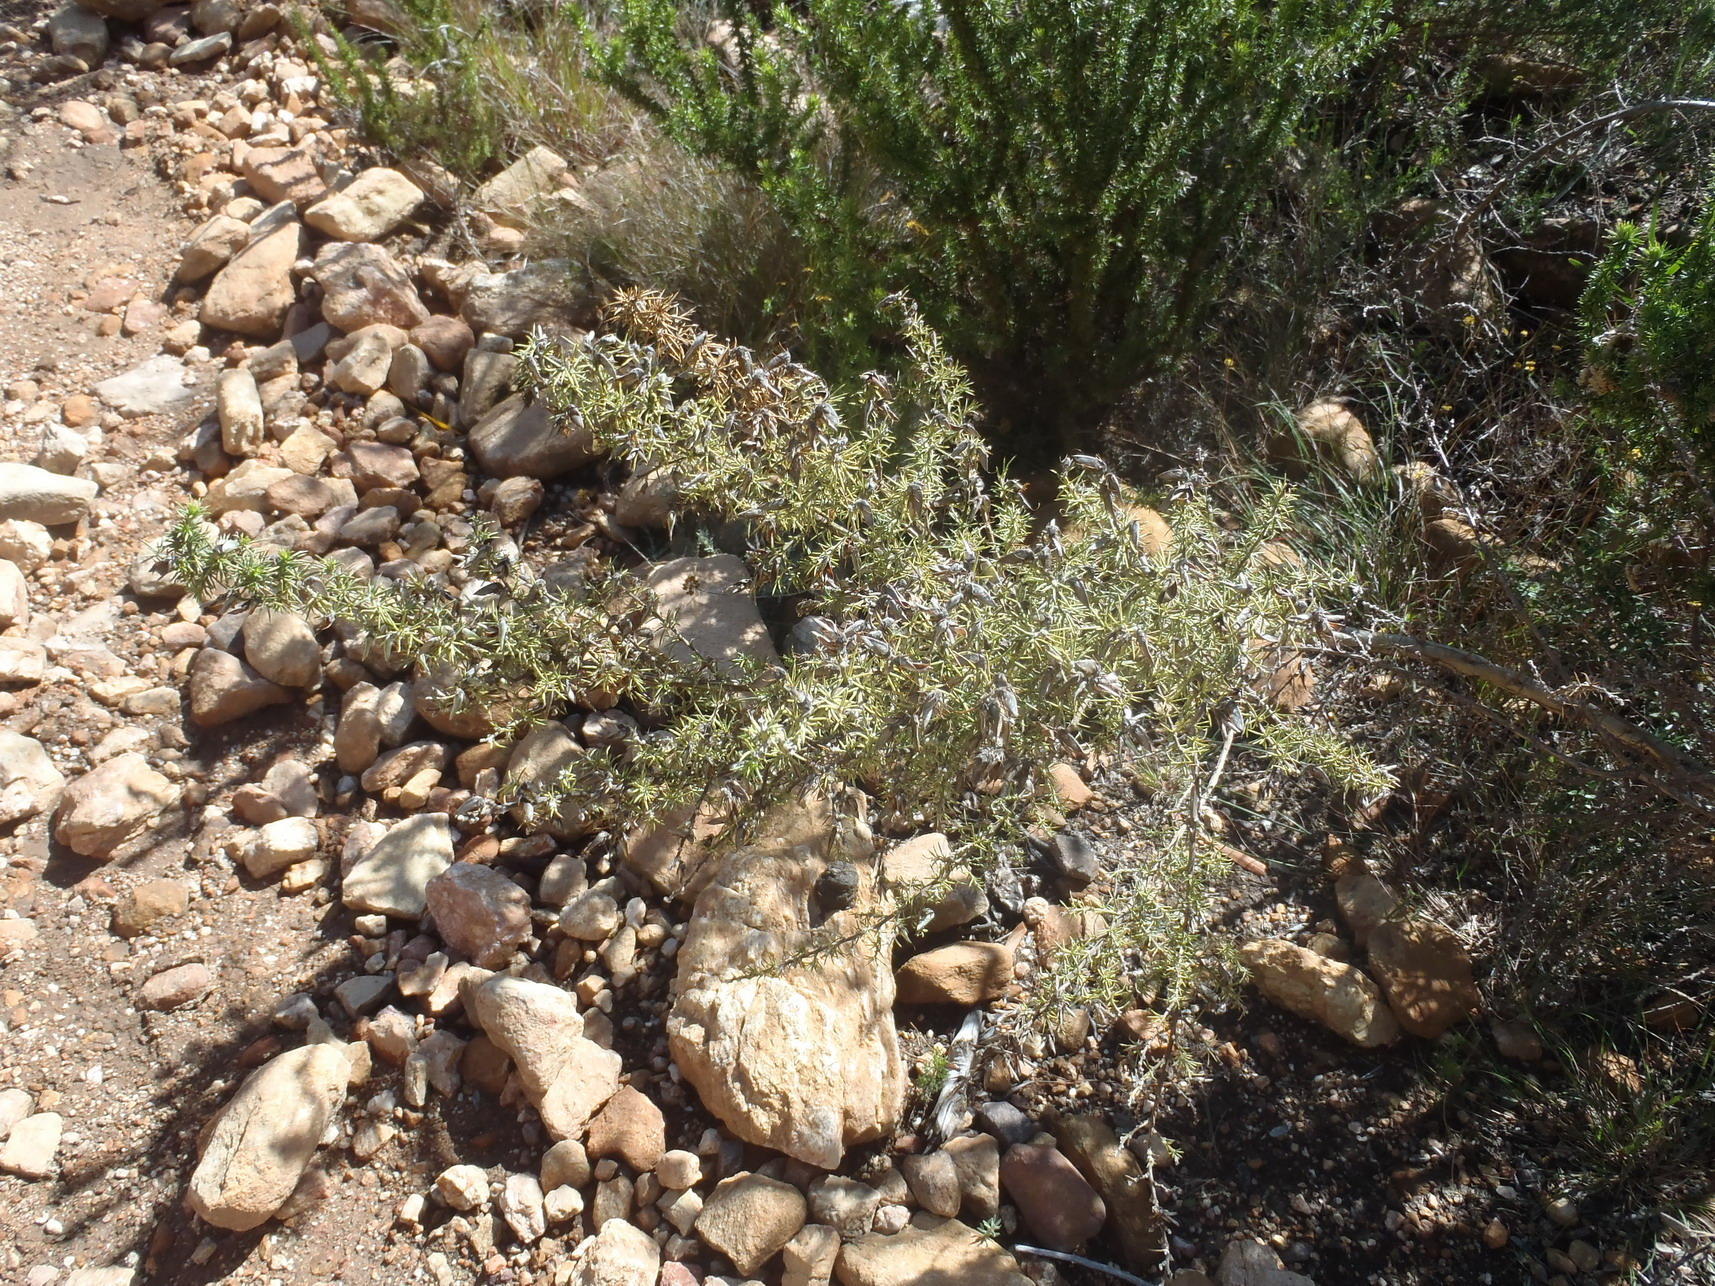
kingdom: Plantae
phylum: Tracheophyta
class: Magnoliopsida
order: Fabales
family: Fabaceae
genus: Aspalathus
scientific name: Aspalathus hirta
